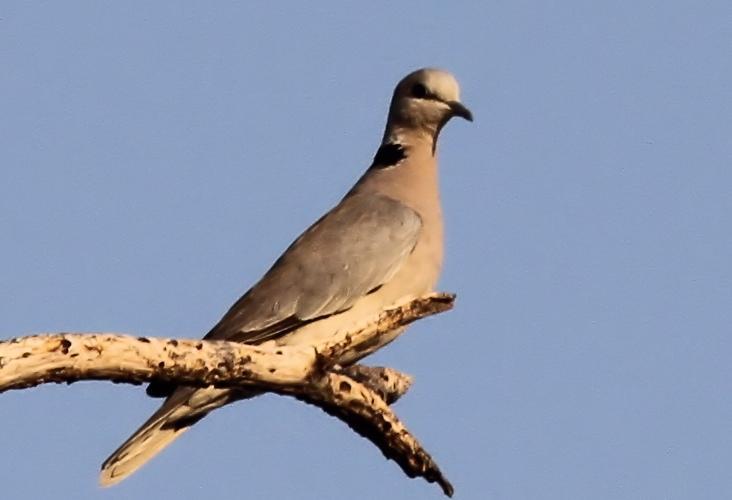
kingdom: Animalia
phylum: Chordata
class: Aves
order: Columbiformes
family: Columbidae
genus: Streptopelia
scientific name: Streptopelia capicola
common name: Ring-necked dove
